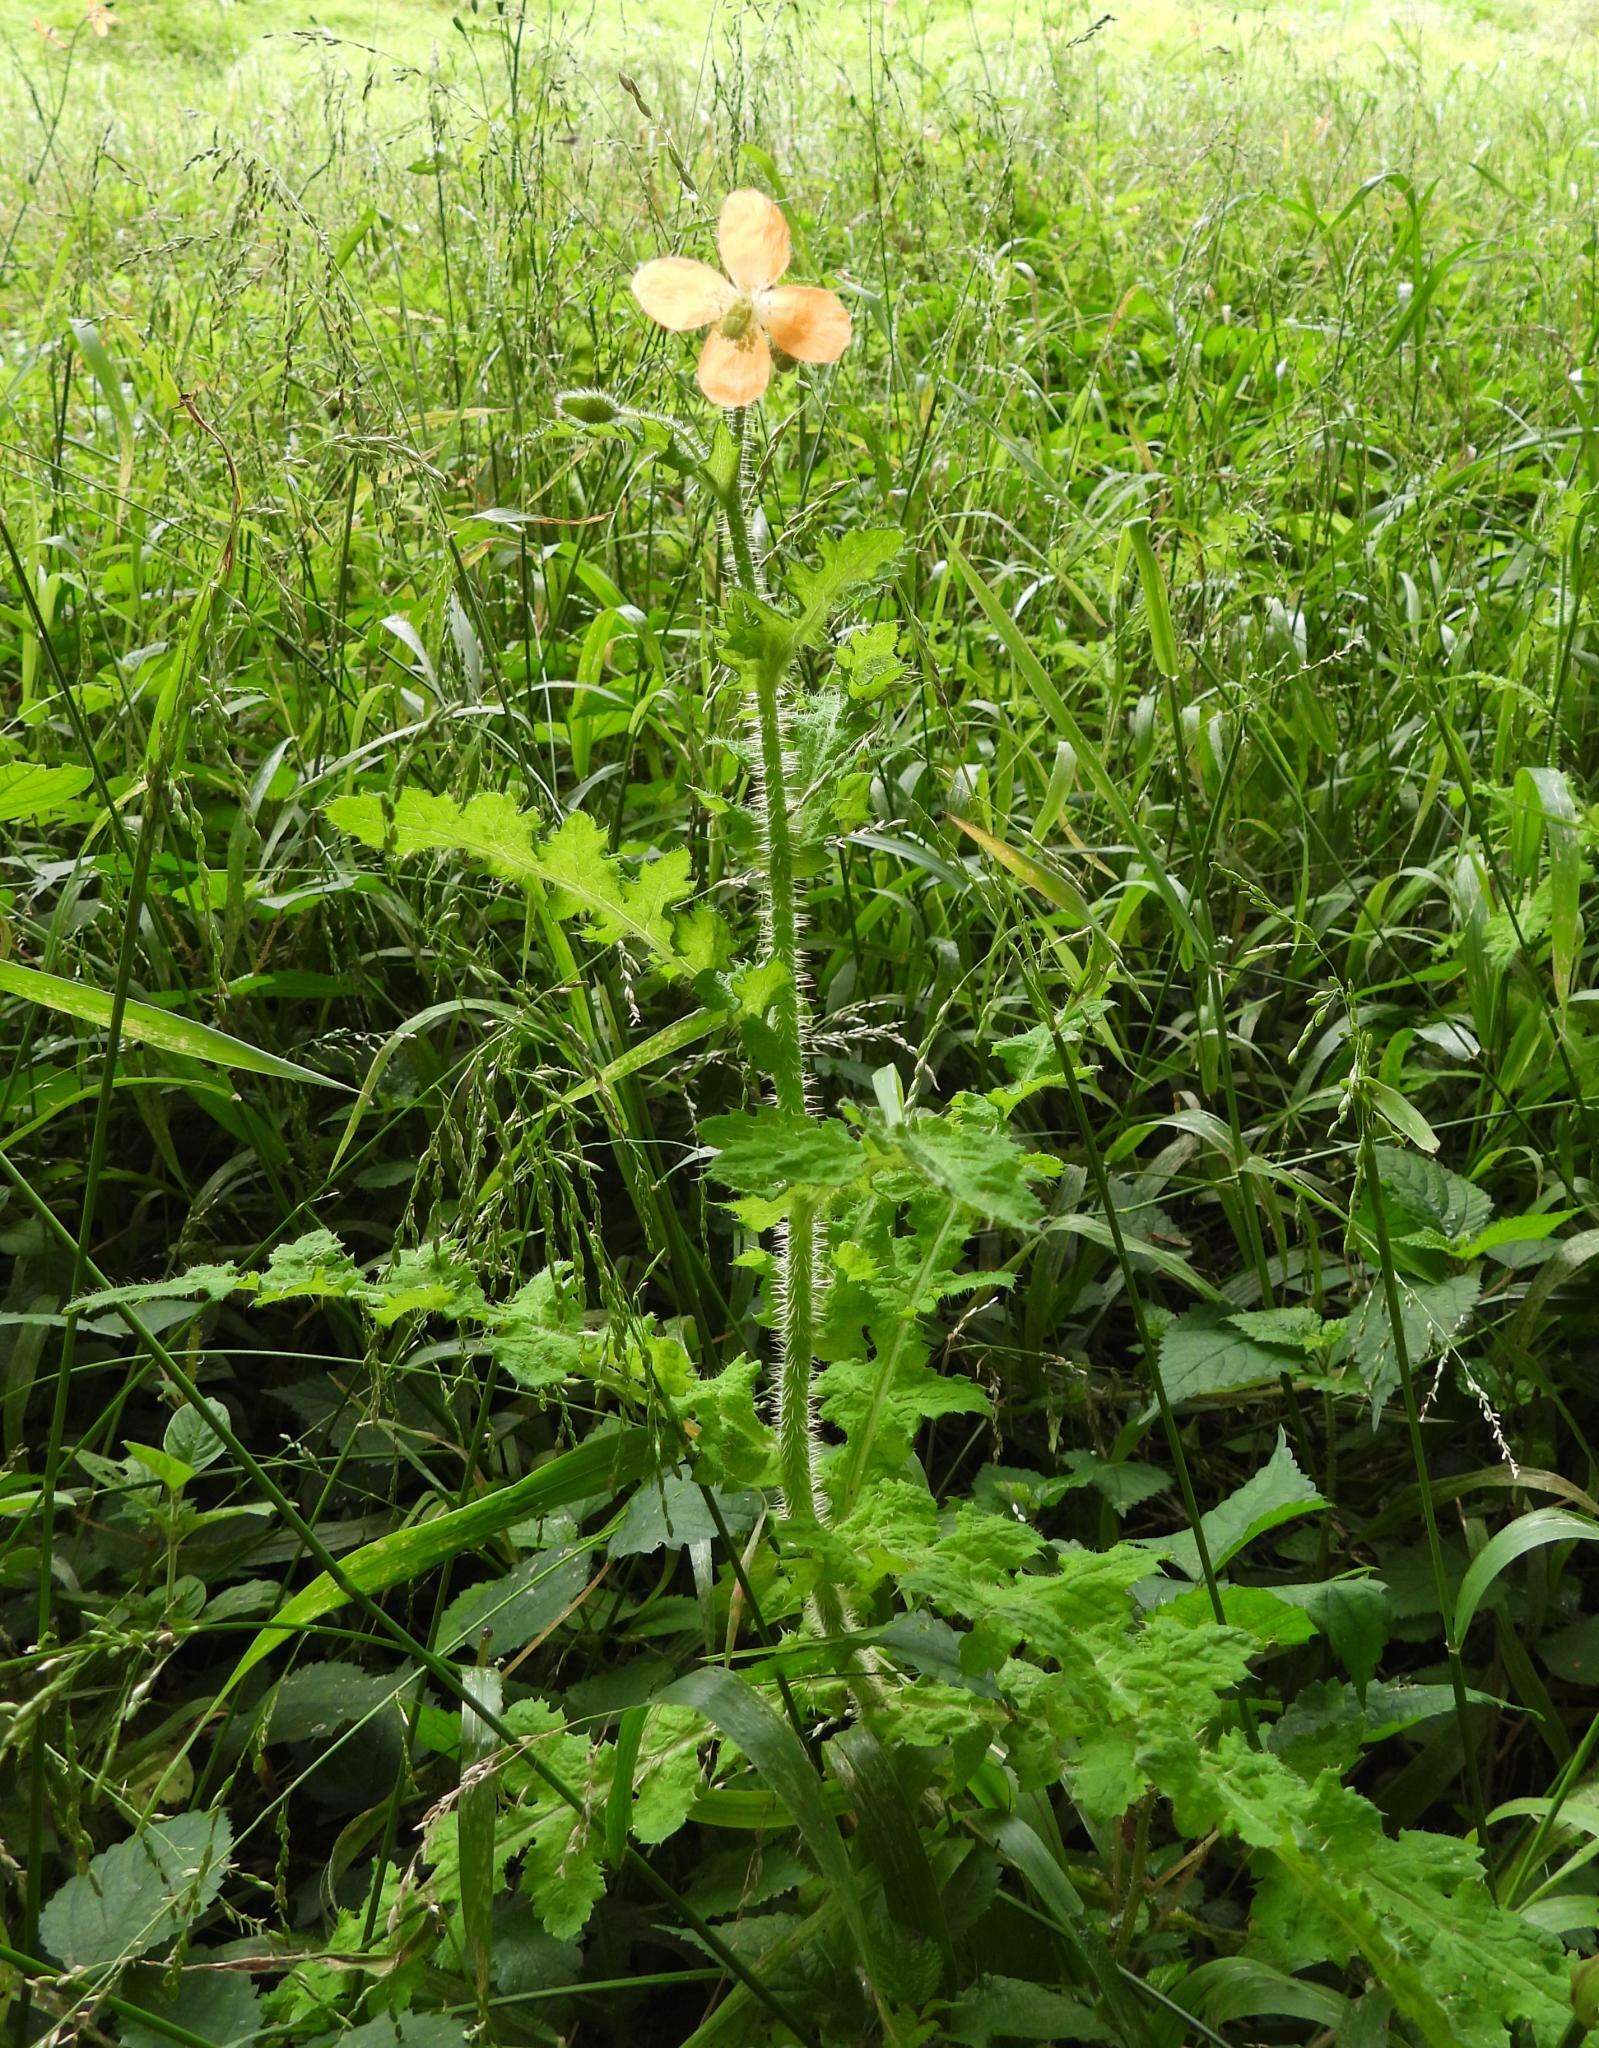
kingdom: Plantae
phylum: Tracheophyta
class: Magnoliopsida
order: Ranunculales
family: Papaveraceae
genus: Papaver
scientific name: Papaver aculeatum
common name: Bristle poppy
